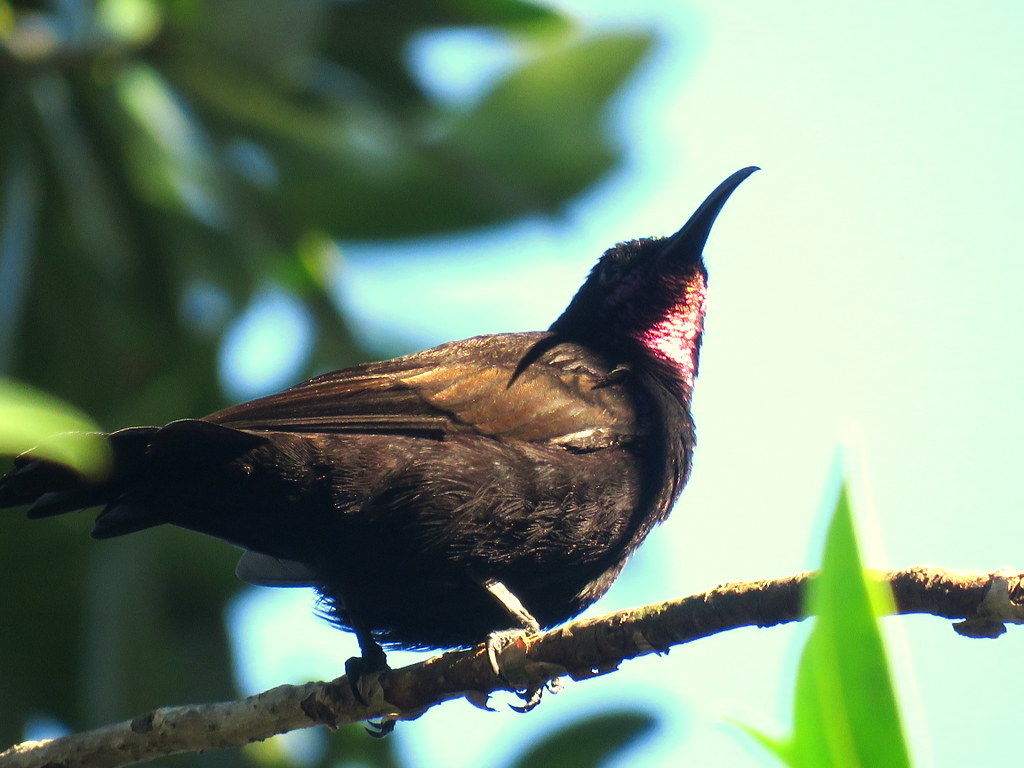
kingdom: Animalia
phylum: Chordata
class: Aves
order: Passeriformes
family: Nectariniidae
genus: Chalcomitra
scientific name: Chalcomitra amethystina
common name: Amethyst sunbird
